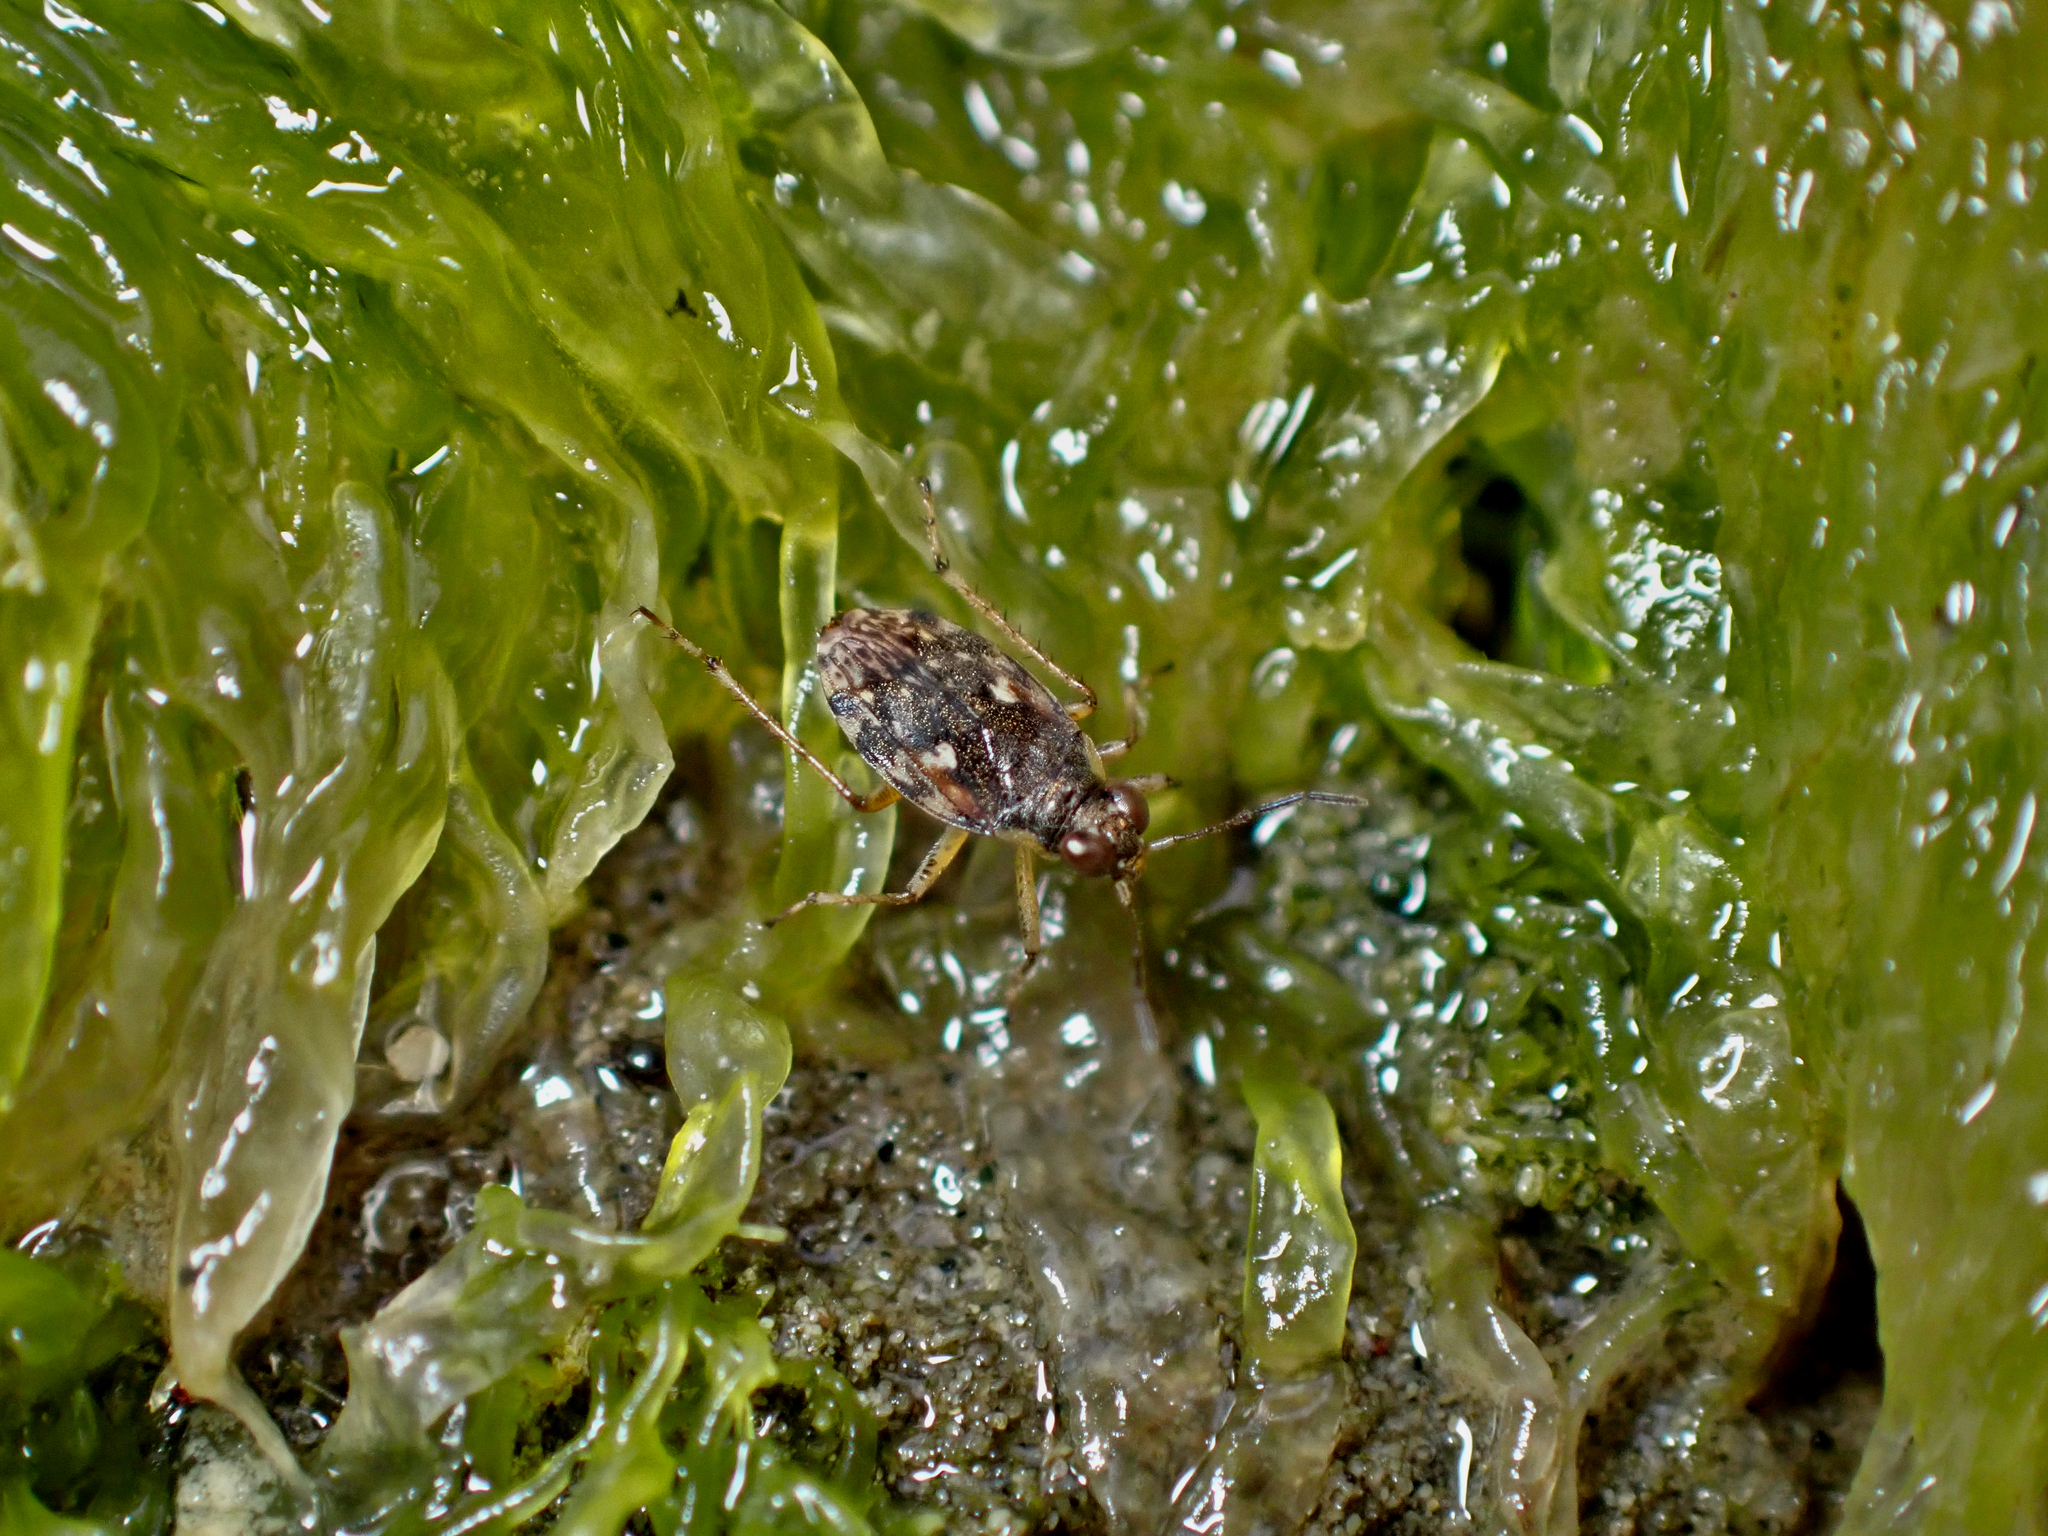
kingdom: Animalia
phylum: Arthropoda
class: Insecta
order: Hemiptera
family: Saldidae
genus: Kiwisaldula
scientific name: Kiwisaldula parvula
